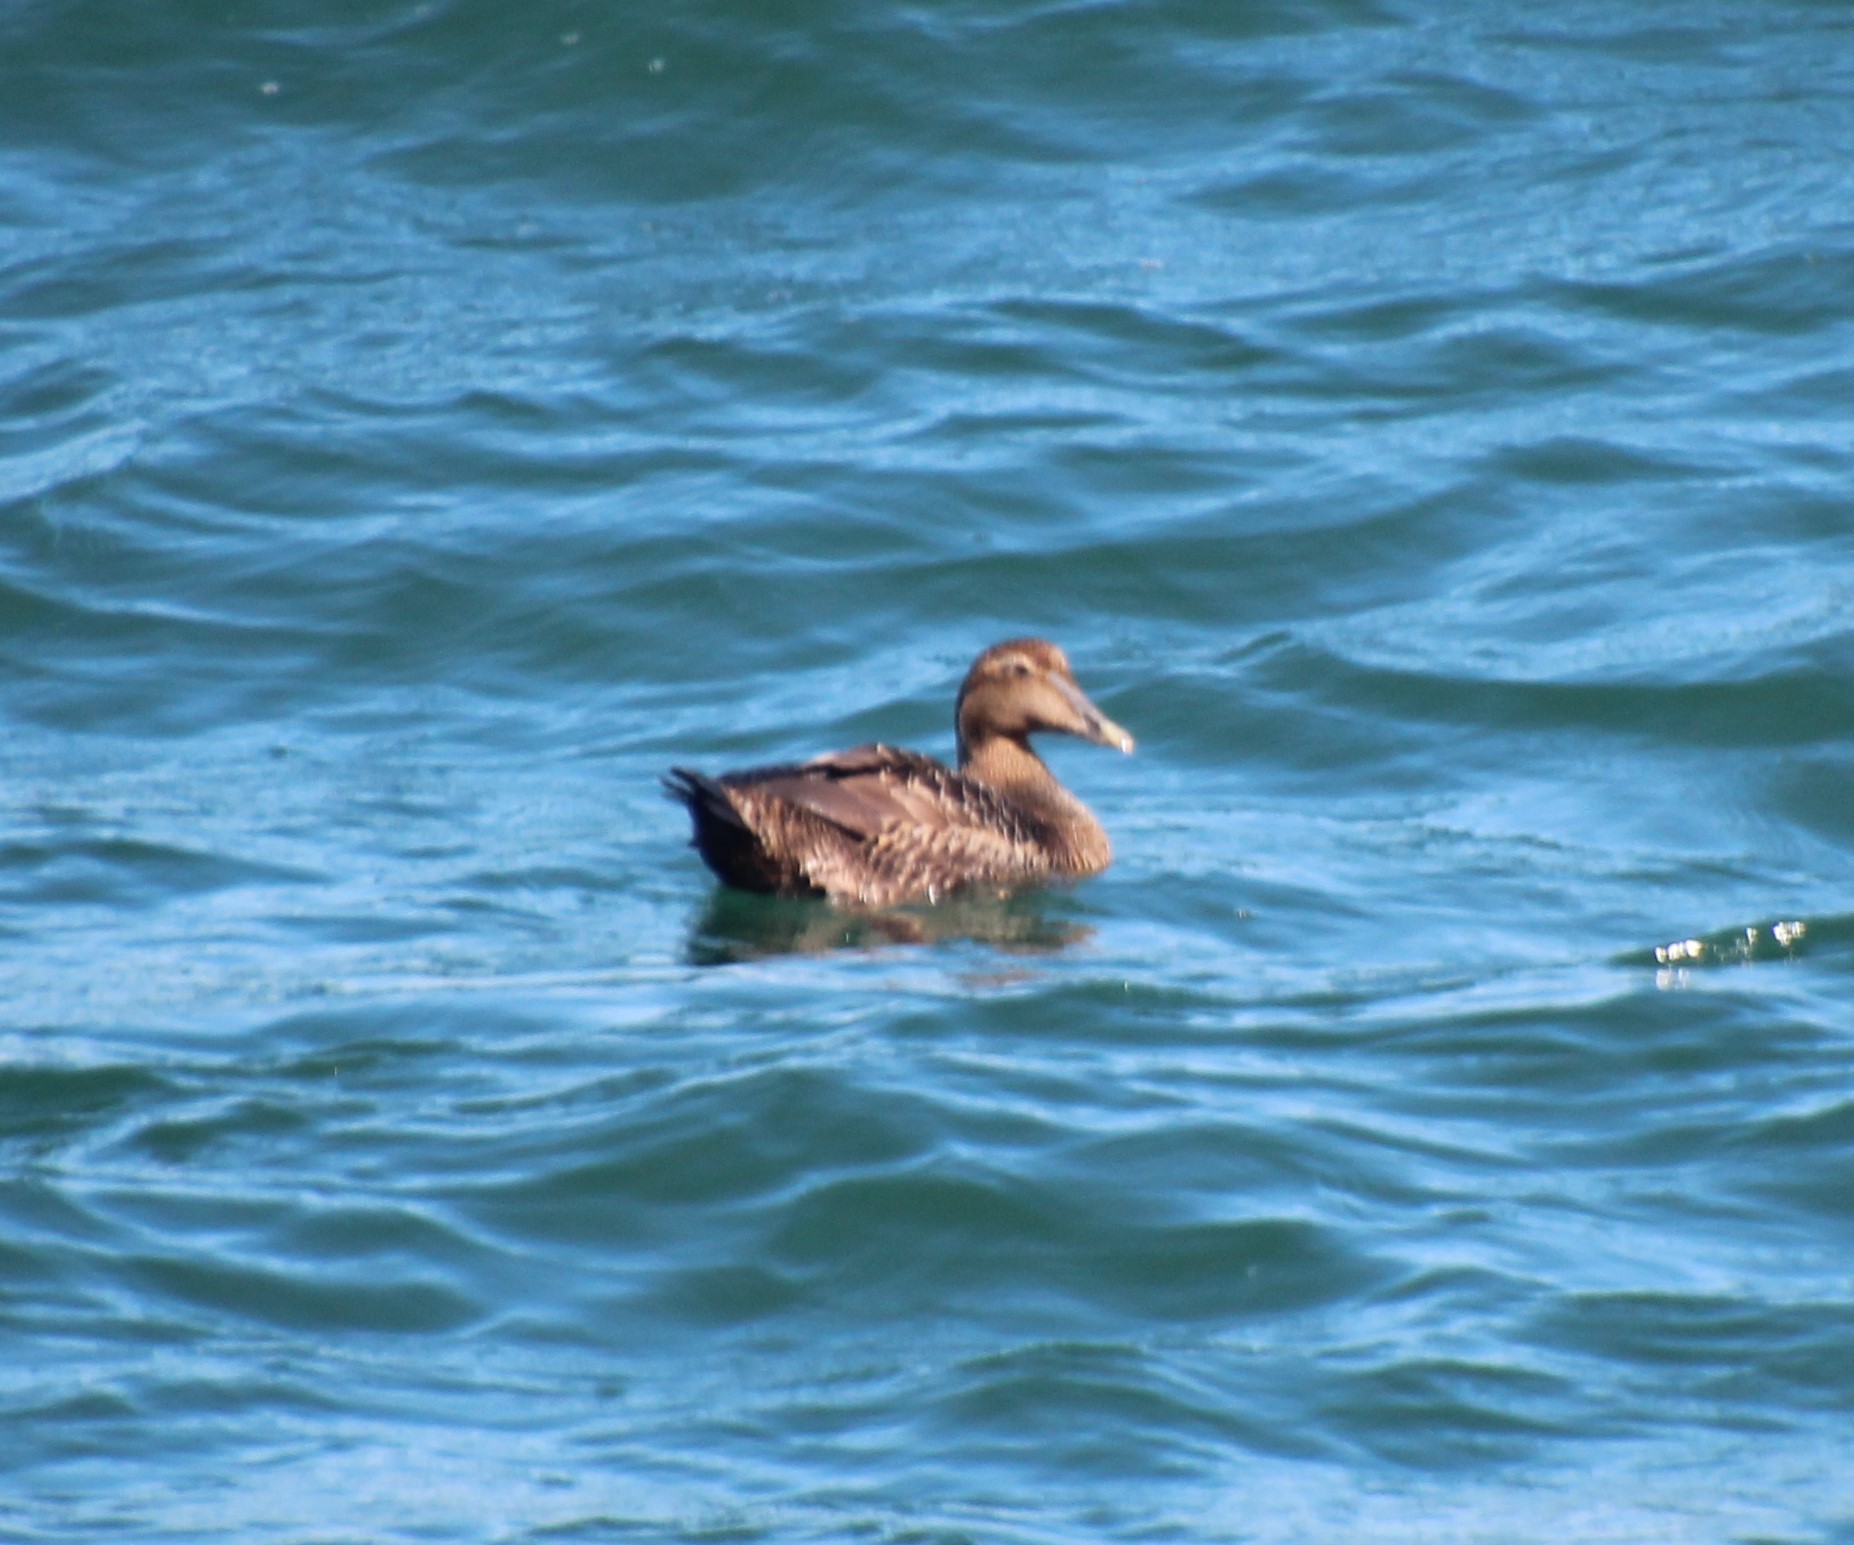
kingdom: Animalia
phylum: Chordata
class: Aves
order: Anseriformes
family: Anatidae
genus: Somateria
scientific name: Somateria mollissima
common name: Common eider
